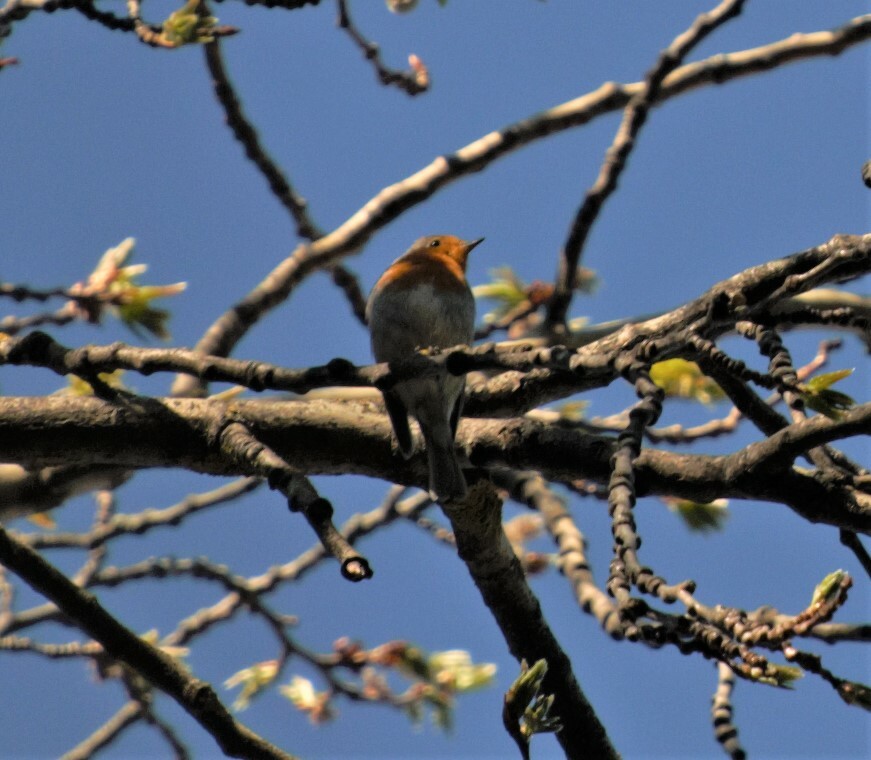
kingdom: Animalia
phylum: Chordata
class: Aves
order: Passeriformes
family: Muscicapidae
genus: Erithacus
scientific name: Erithacus rubecula
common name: European robin
